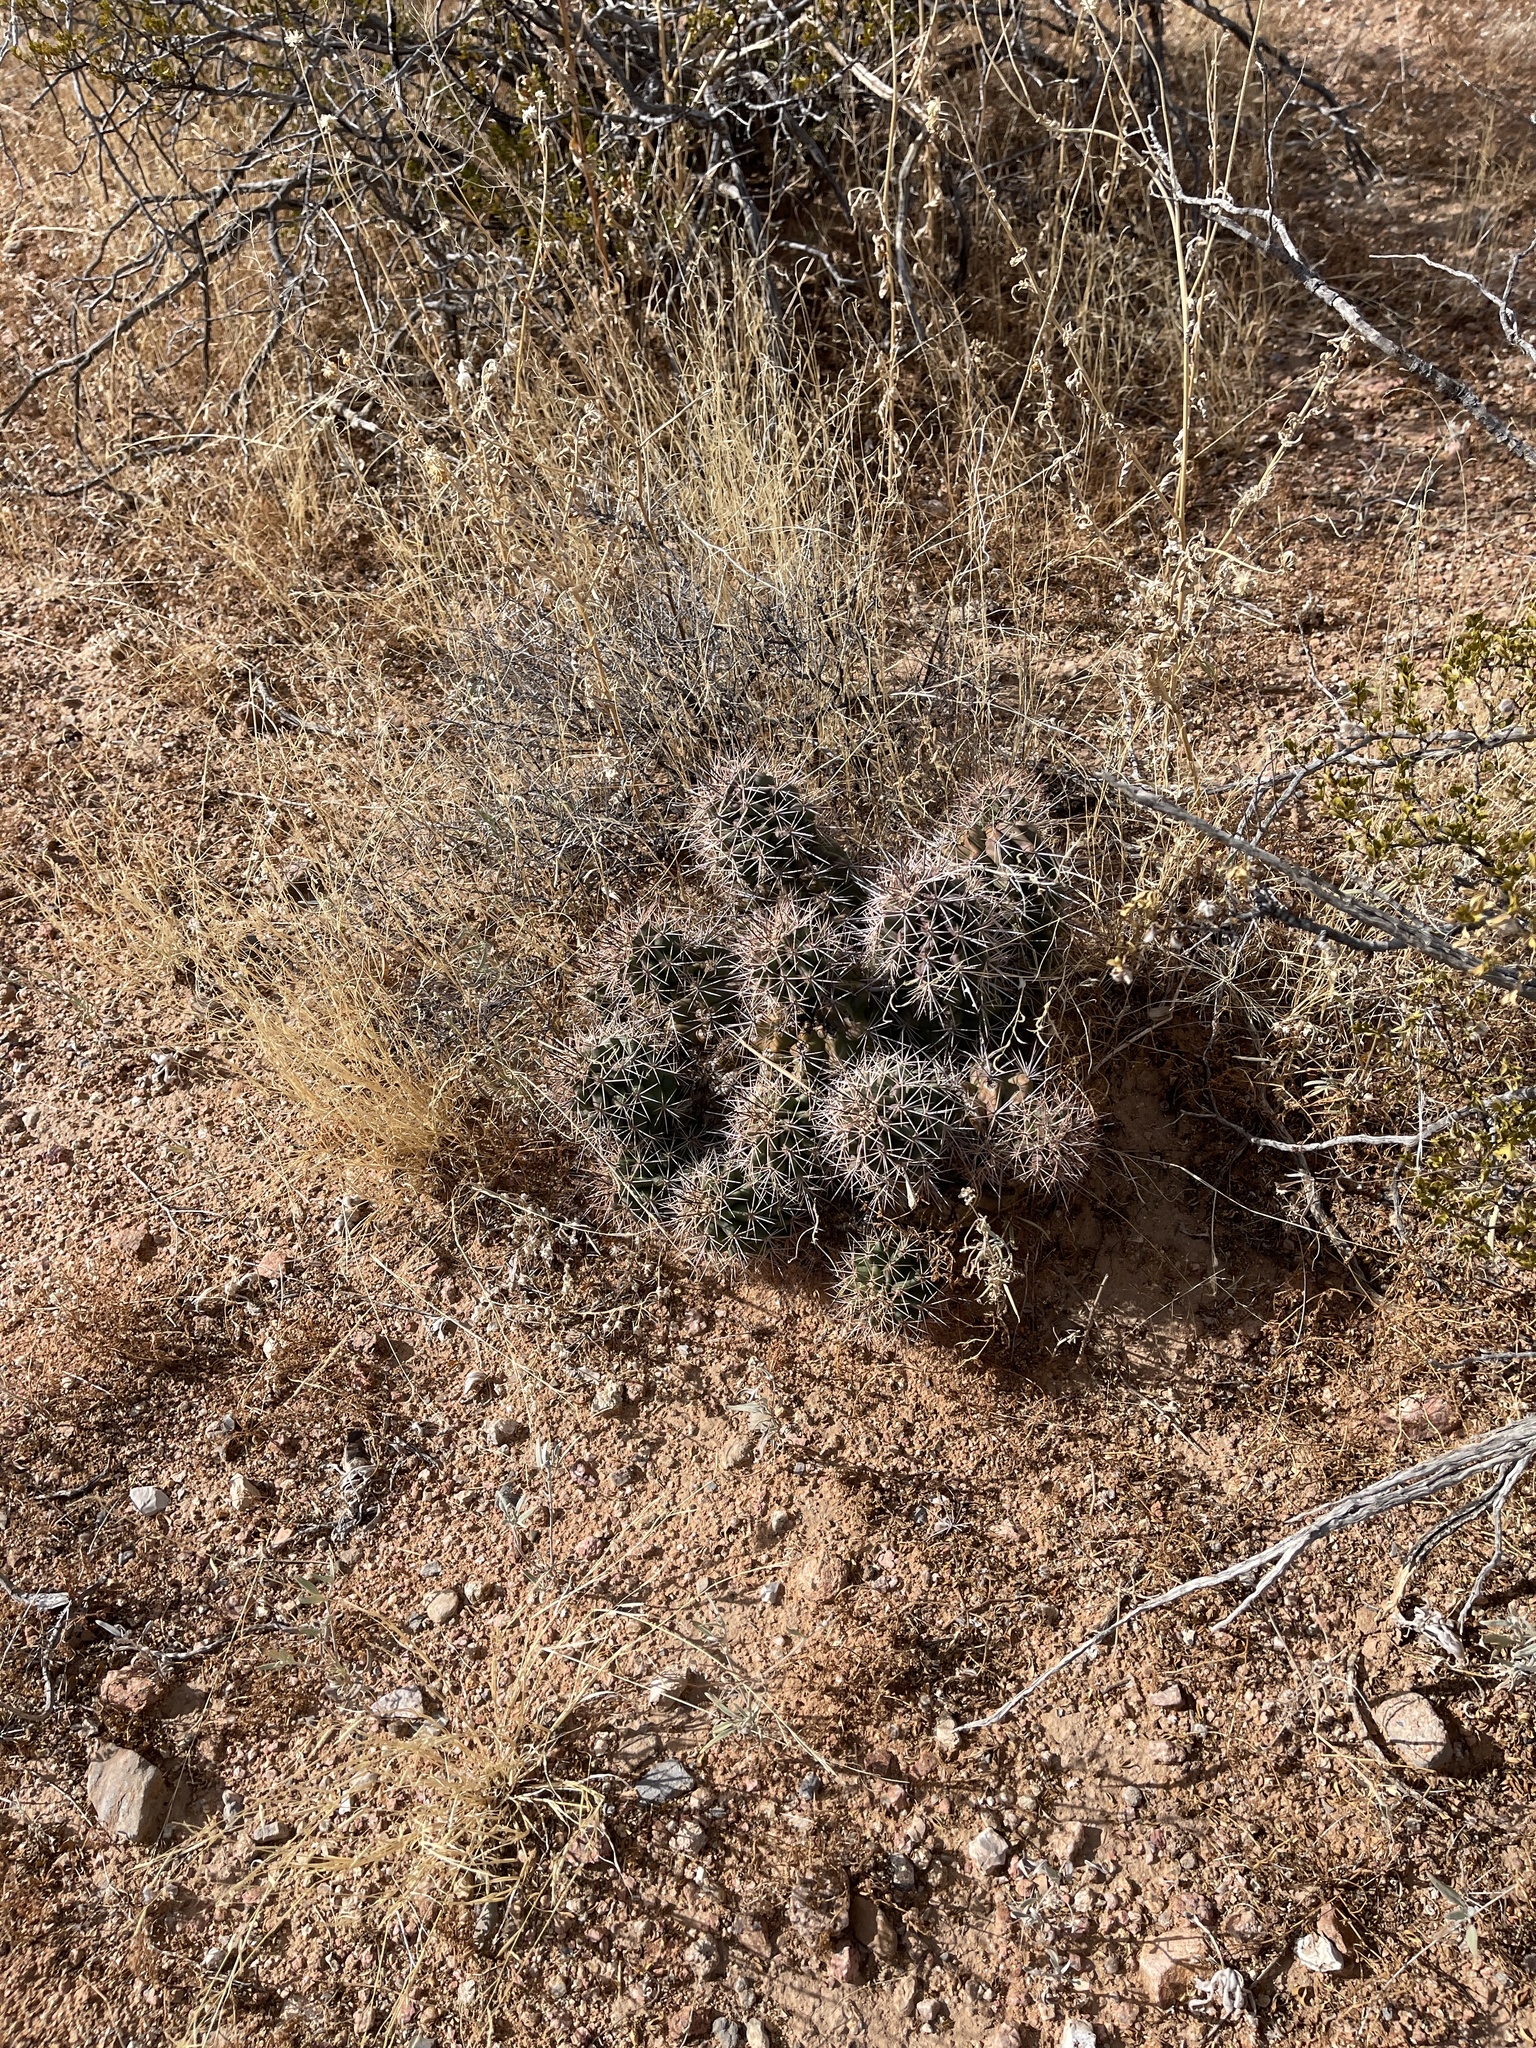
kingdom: Plantae
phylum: Tracheophyta
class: Magnoliopsida
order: Caryophyllales
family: Cactaceae
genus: Echinocereus
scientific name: Echinocereus coccineus
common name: Scarlet hedgehog cactus
